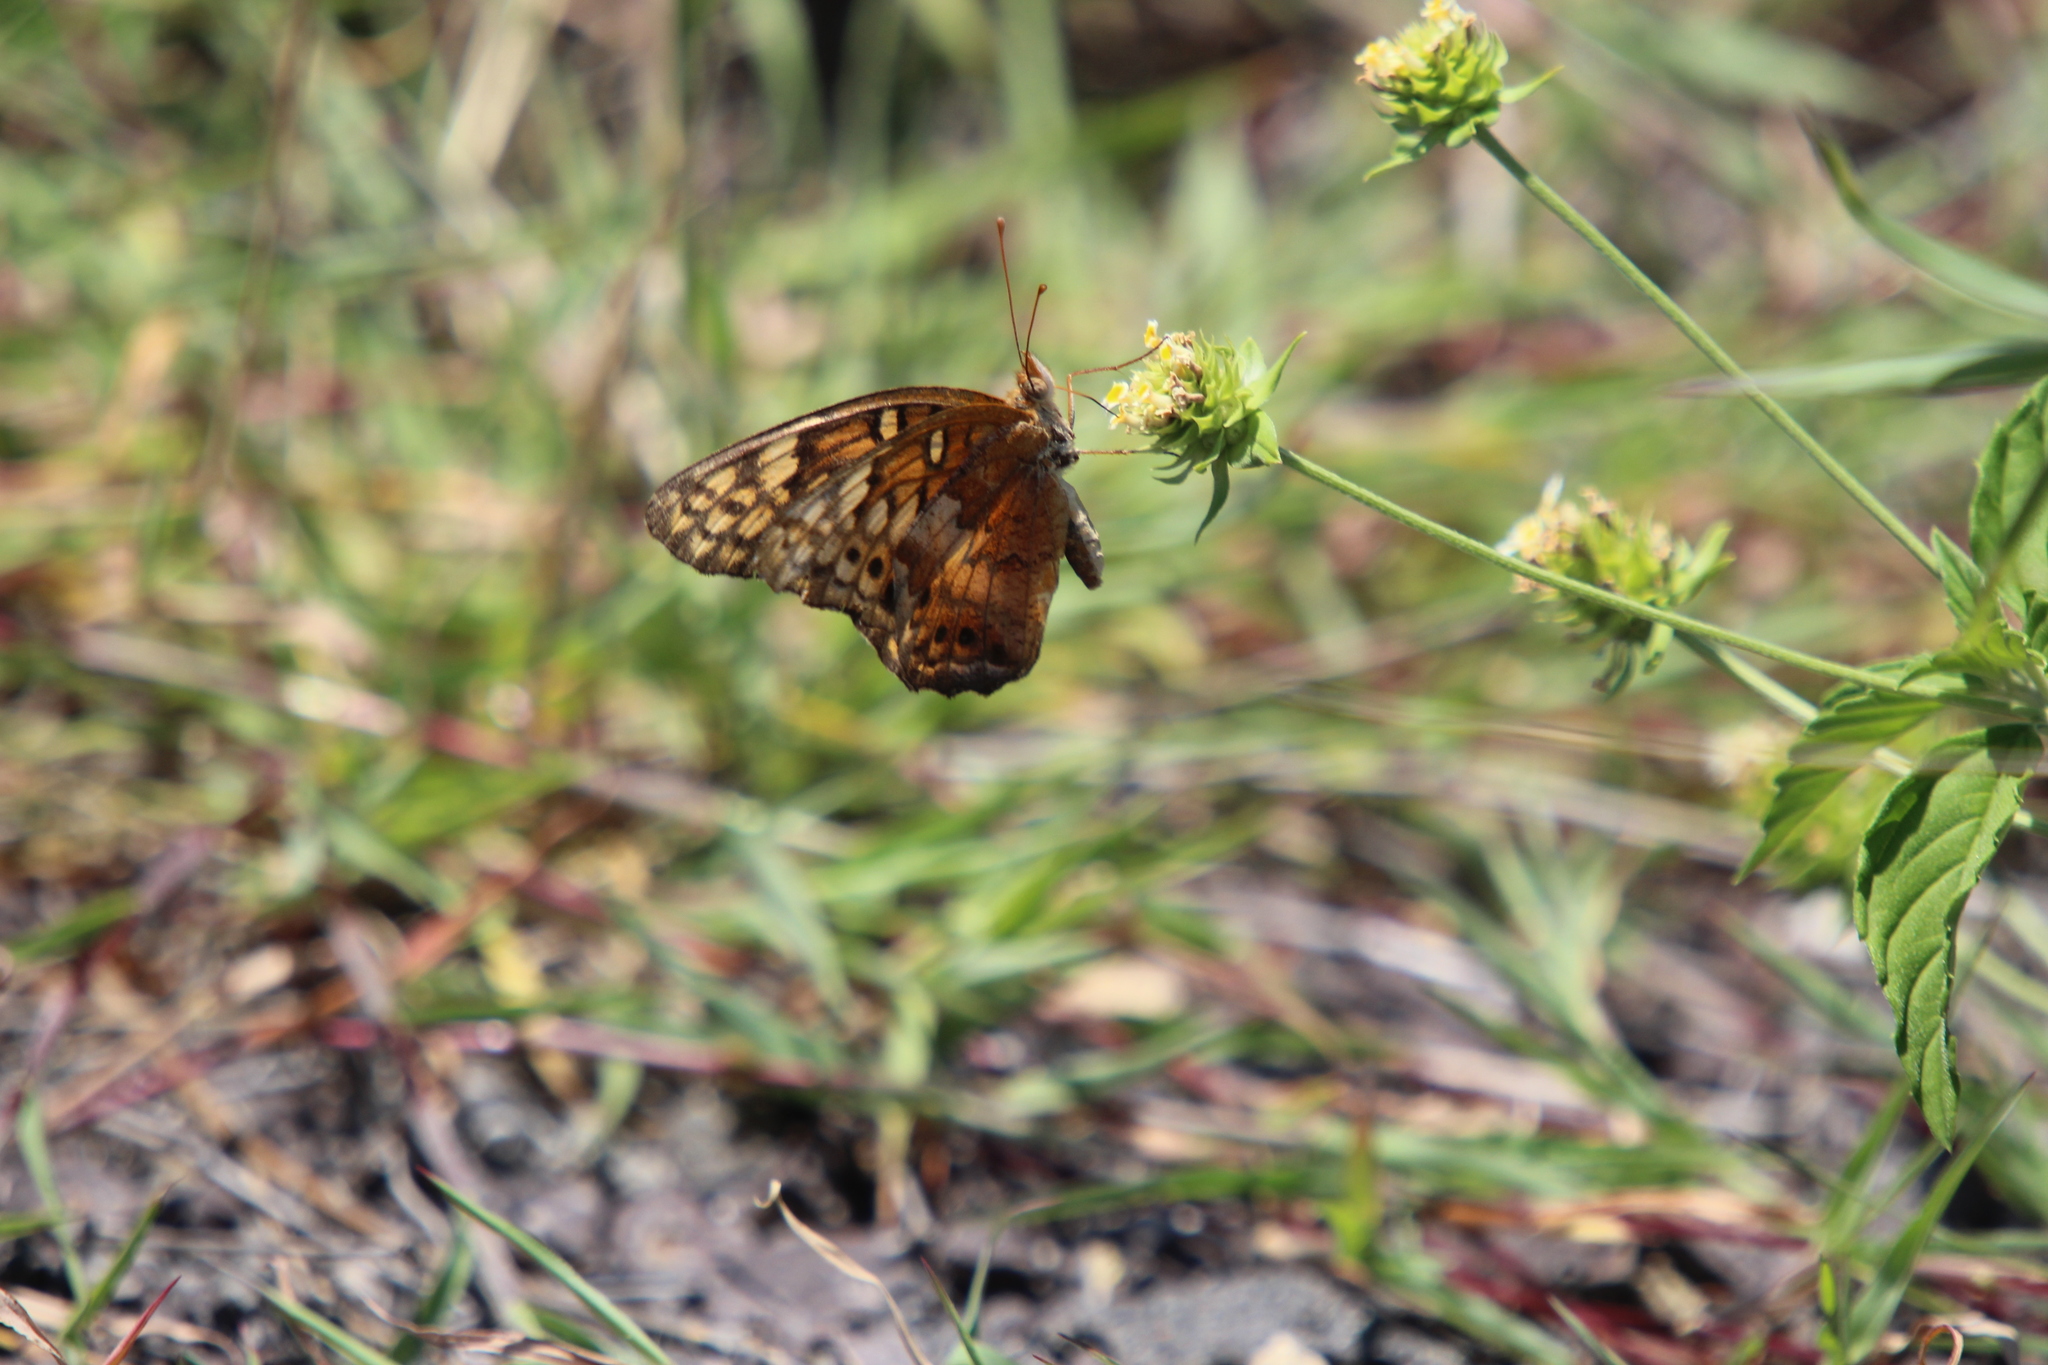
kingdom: Animalia
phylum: Arthropoda
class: Insecta
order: Lepidoptera
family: Nymphalidae
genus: Euptoieta
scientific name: Euptoieta claudia
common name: Variegated fritillary
